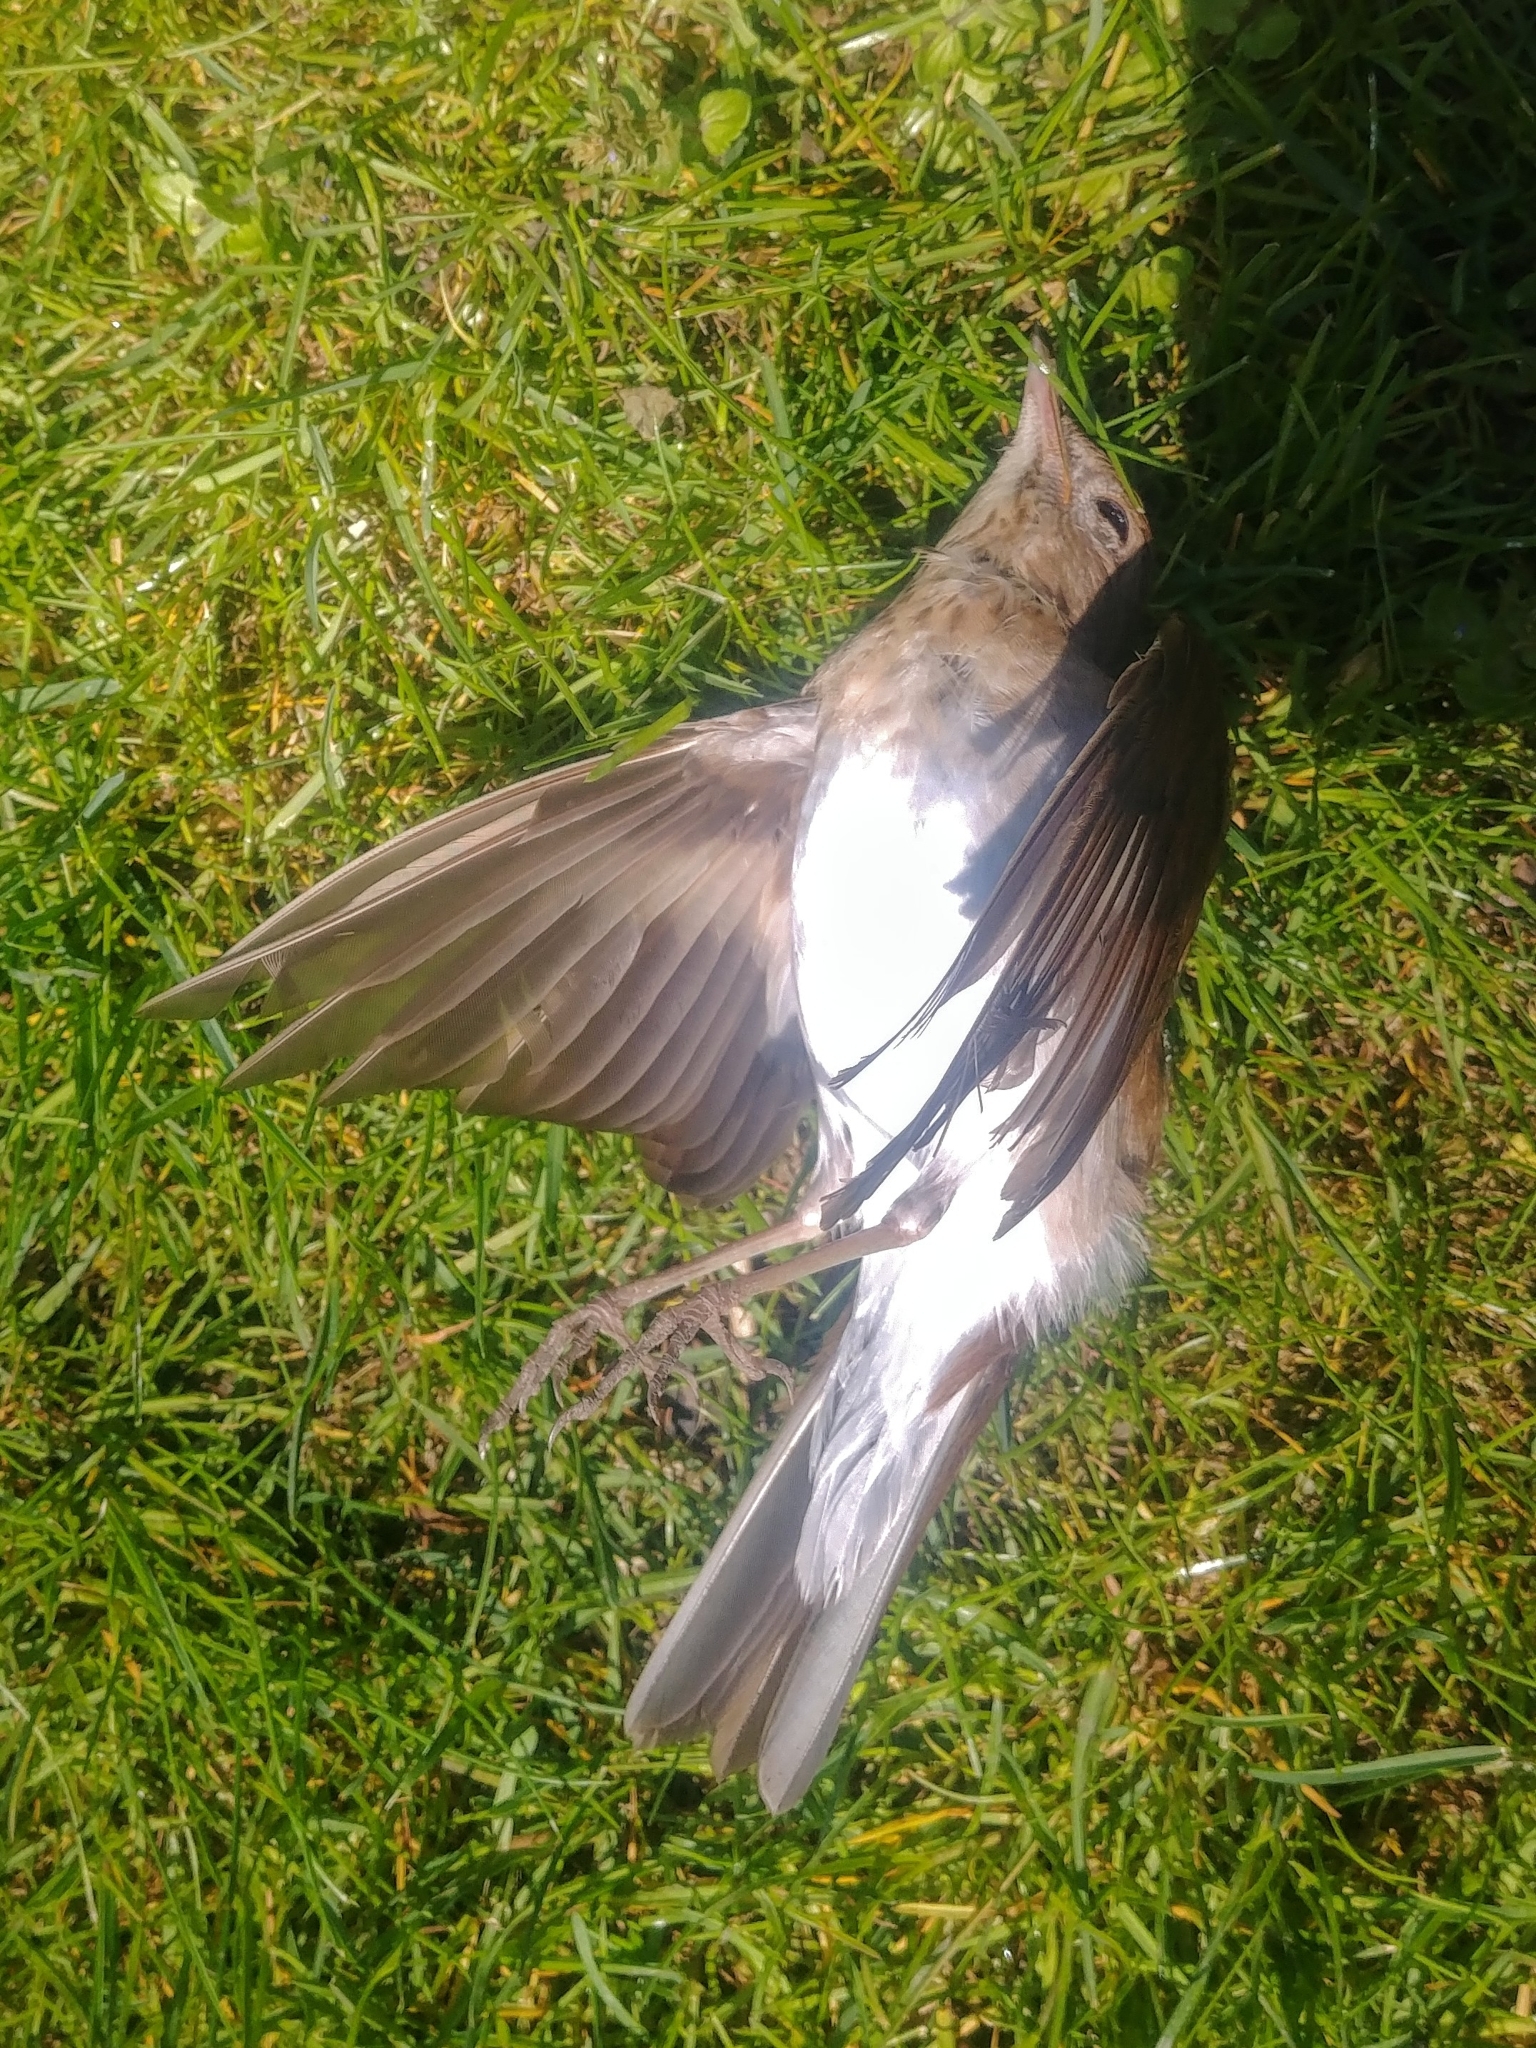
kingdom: Animalia
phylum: Chordata
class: Aves
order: Passeriformes
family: Turdidae
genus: Catharus
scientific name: Catharus fuscescens
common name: Veery
